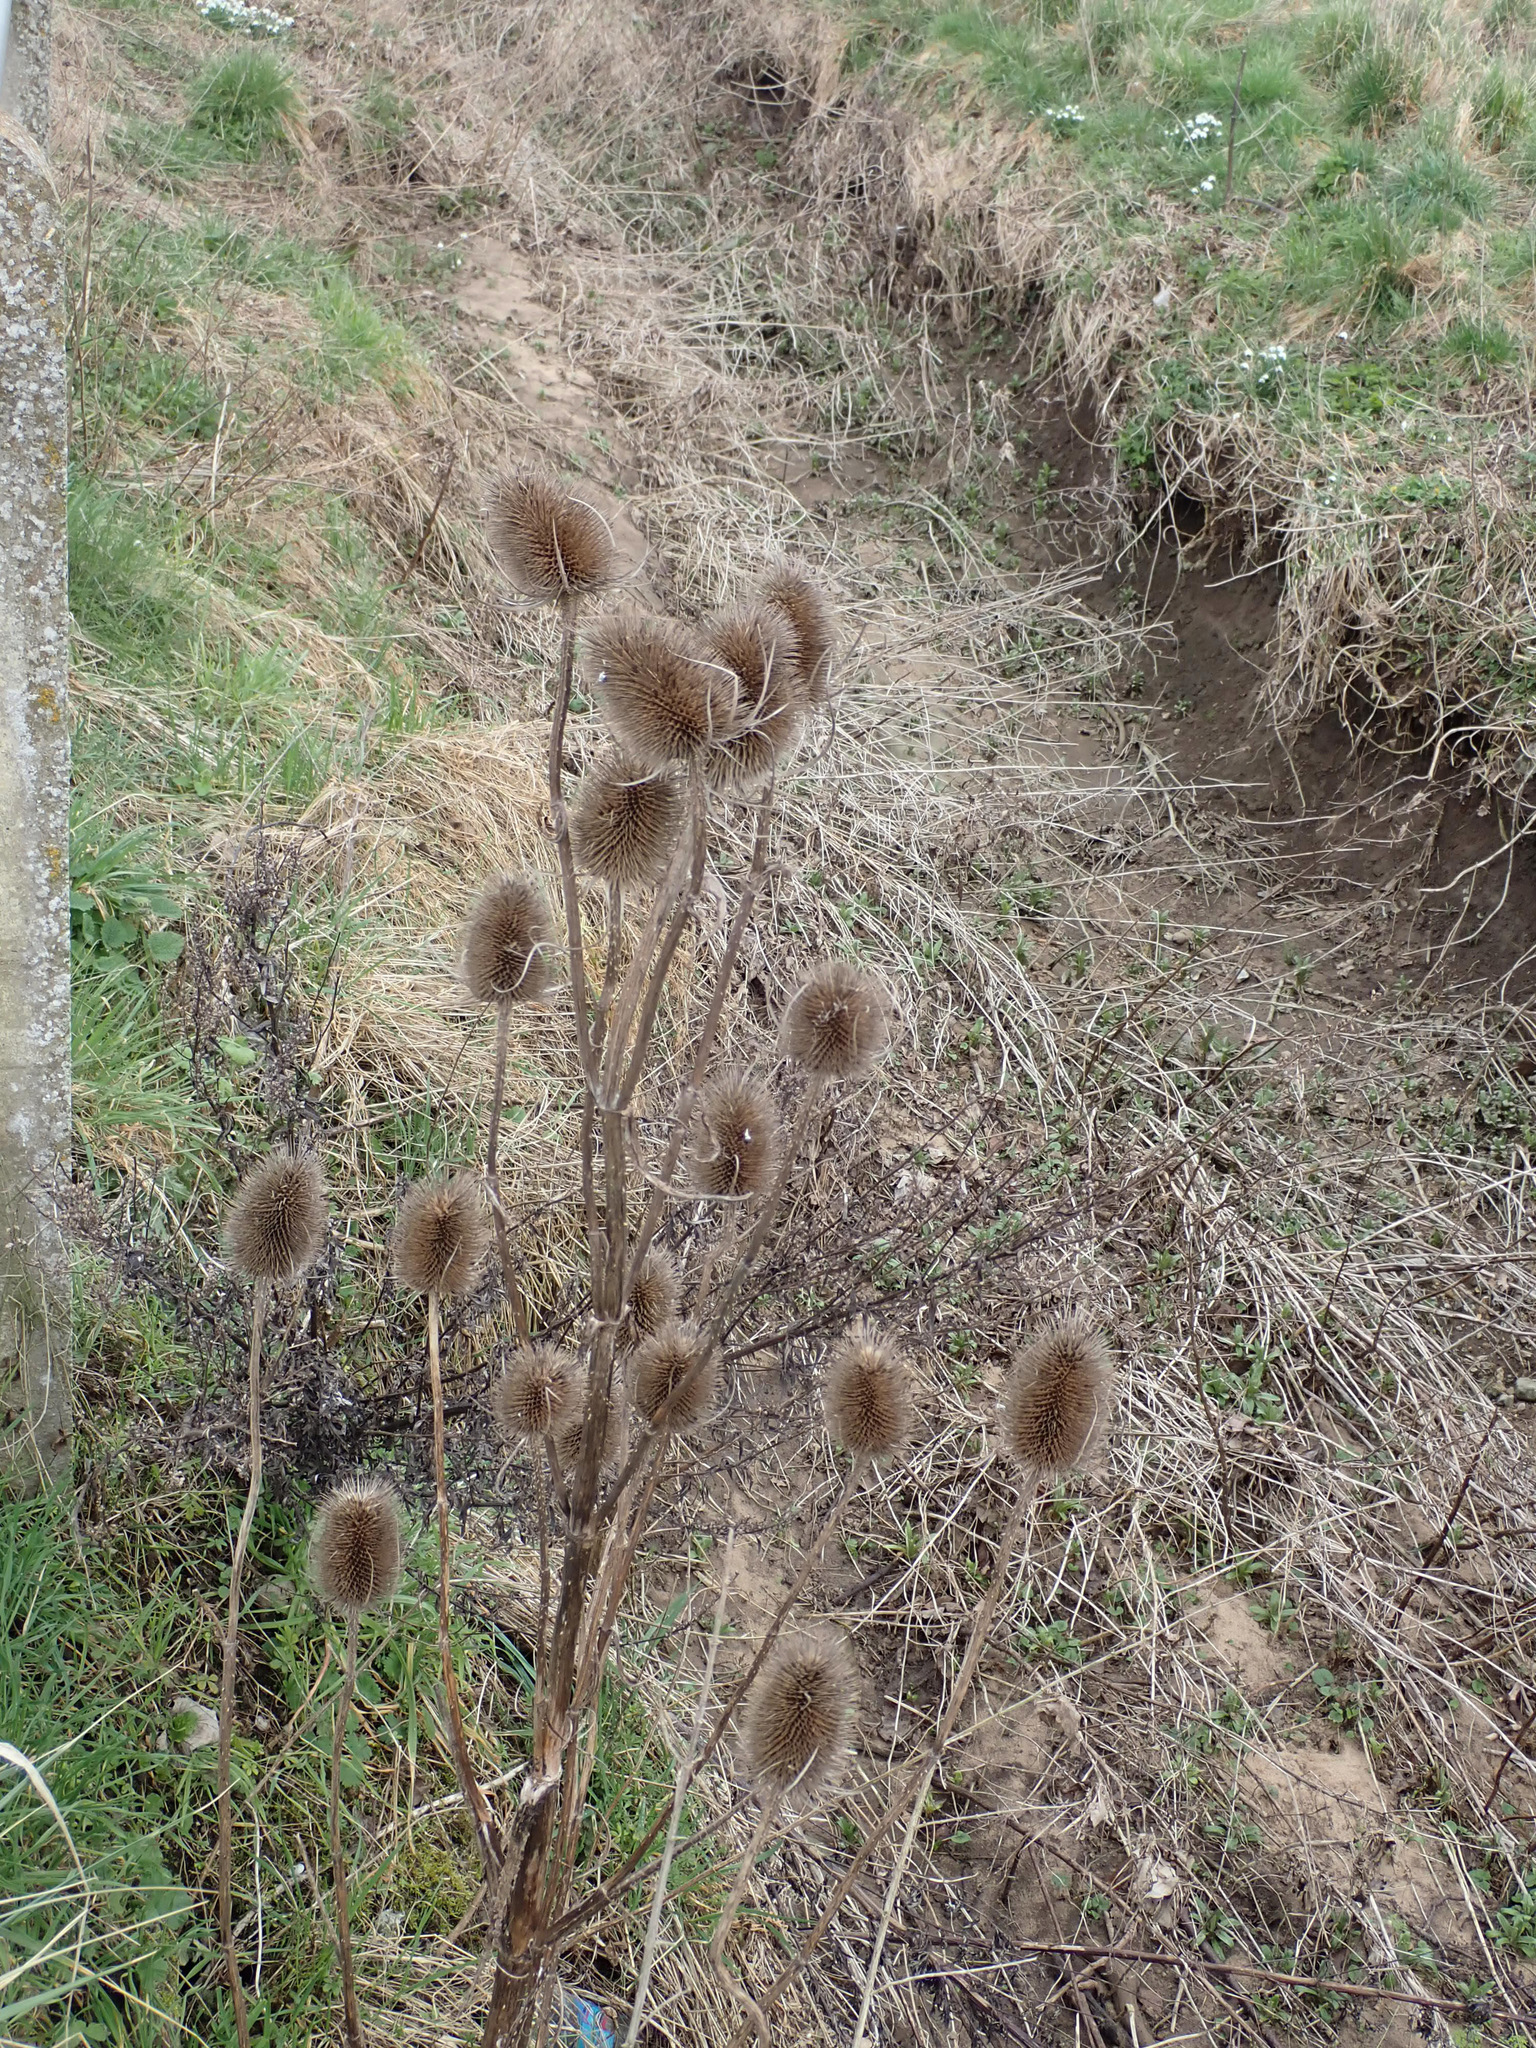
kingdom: Plantae
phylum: Tracheophyta
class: Magnoliopsida
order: Dipsacales
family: Caprifoliaceae
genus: Dipsacus
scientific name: Dipsacus fullonum
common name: Teasel
